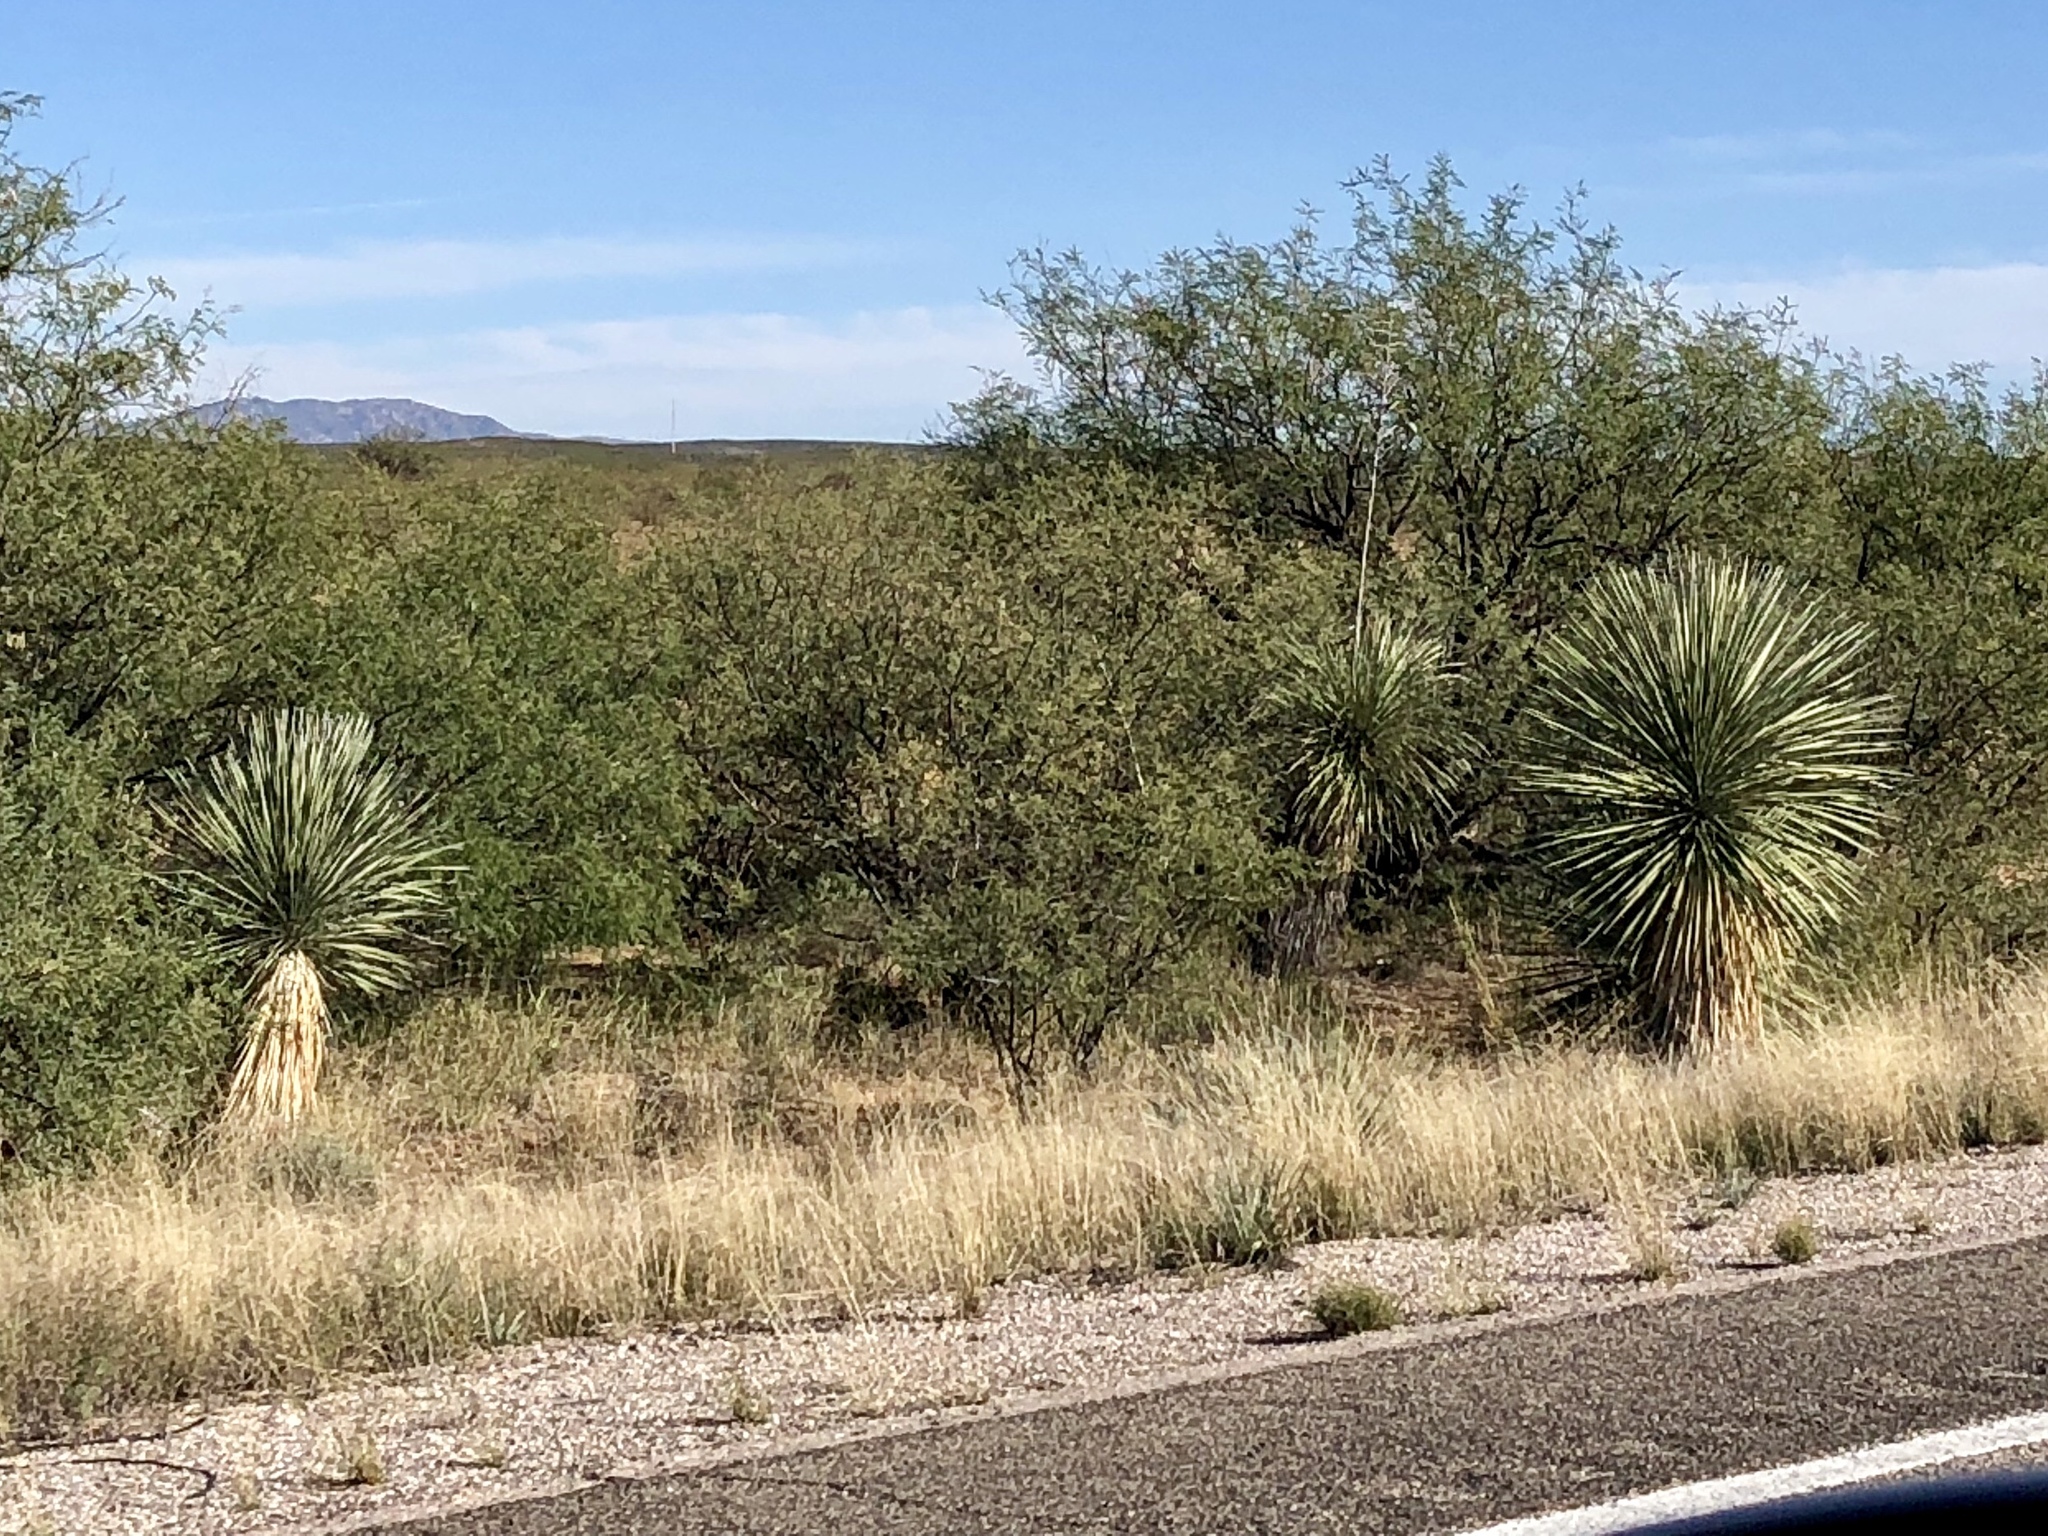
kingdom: Plantae
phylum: Tracheophyta
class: Liliopsida
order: Asparagales
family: Asparagaceae
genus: Yucca
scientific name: Yucca elata
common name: Palmella
